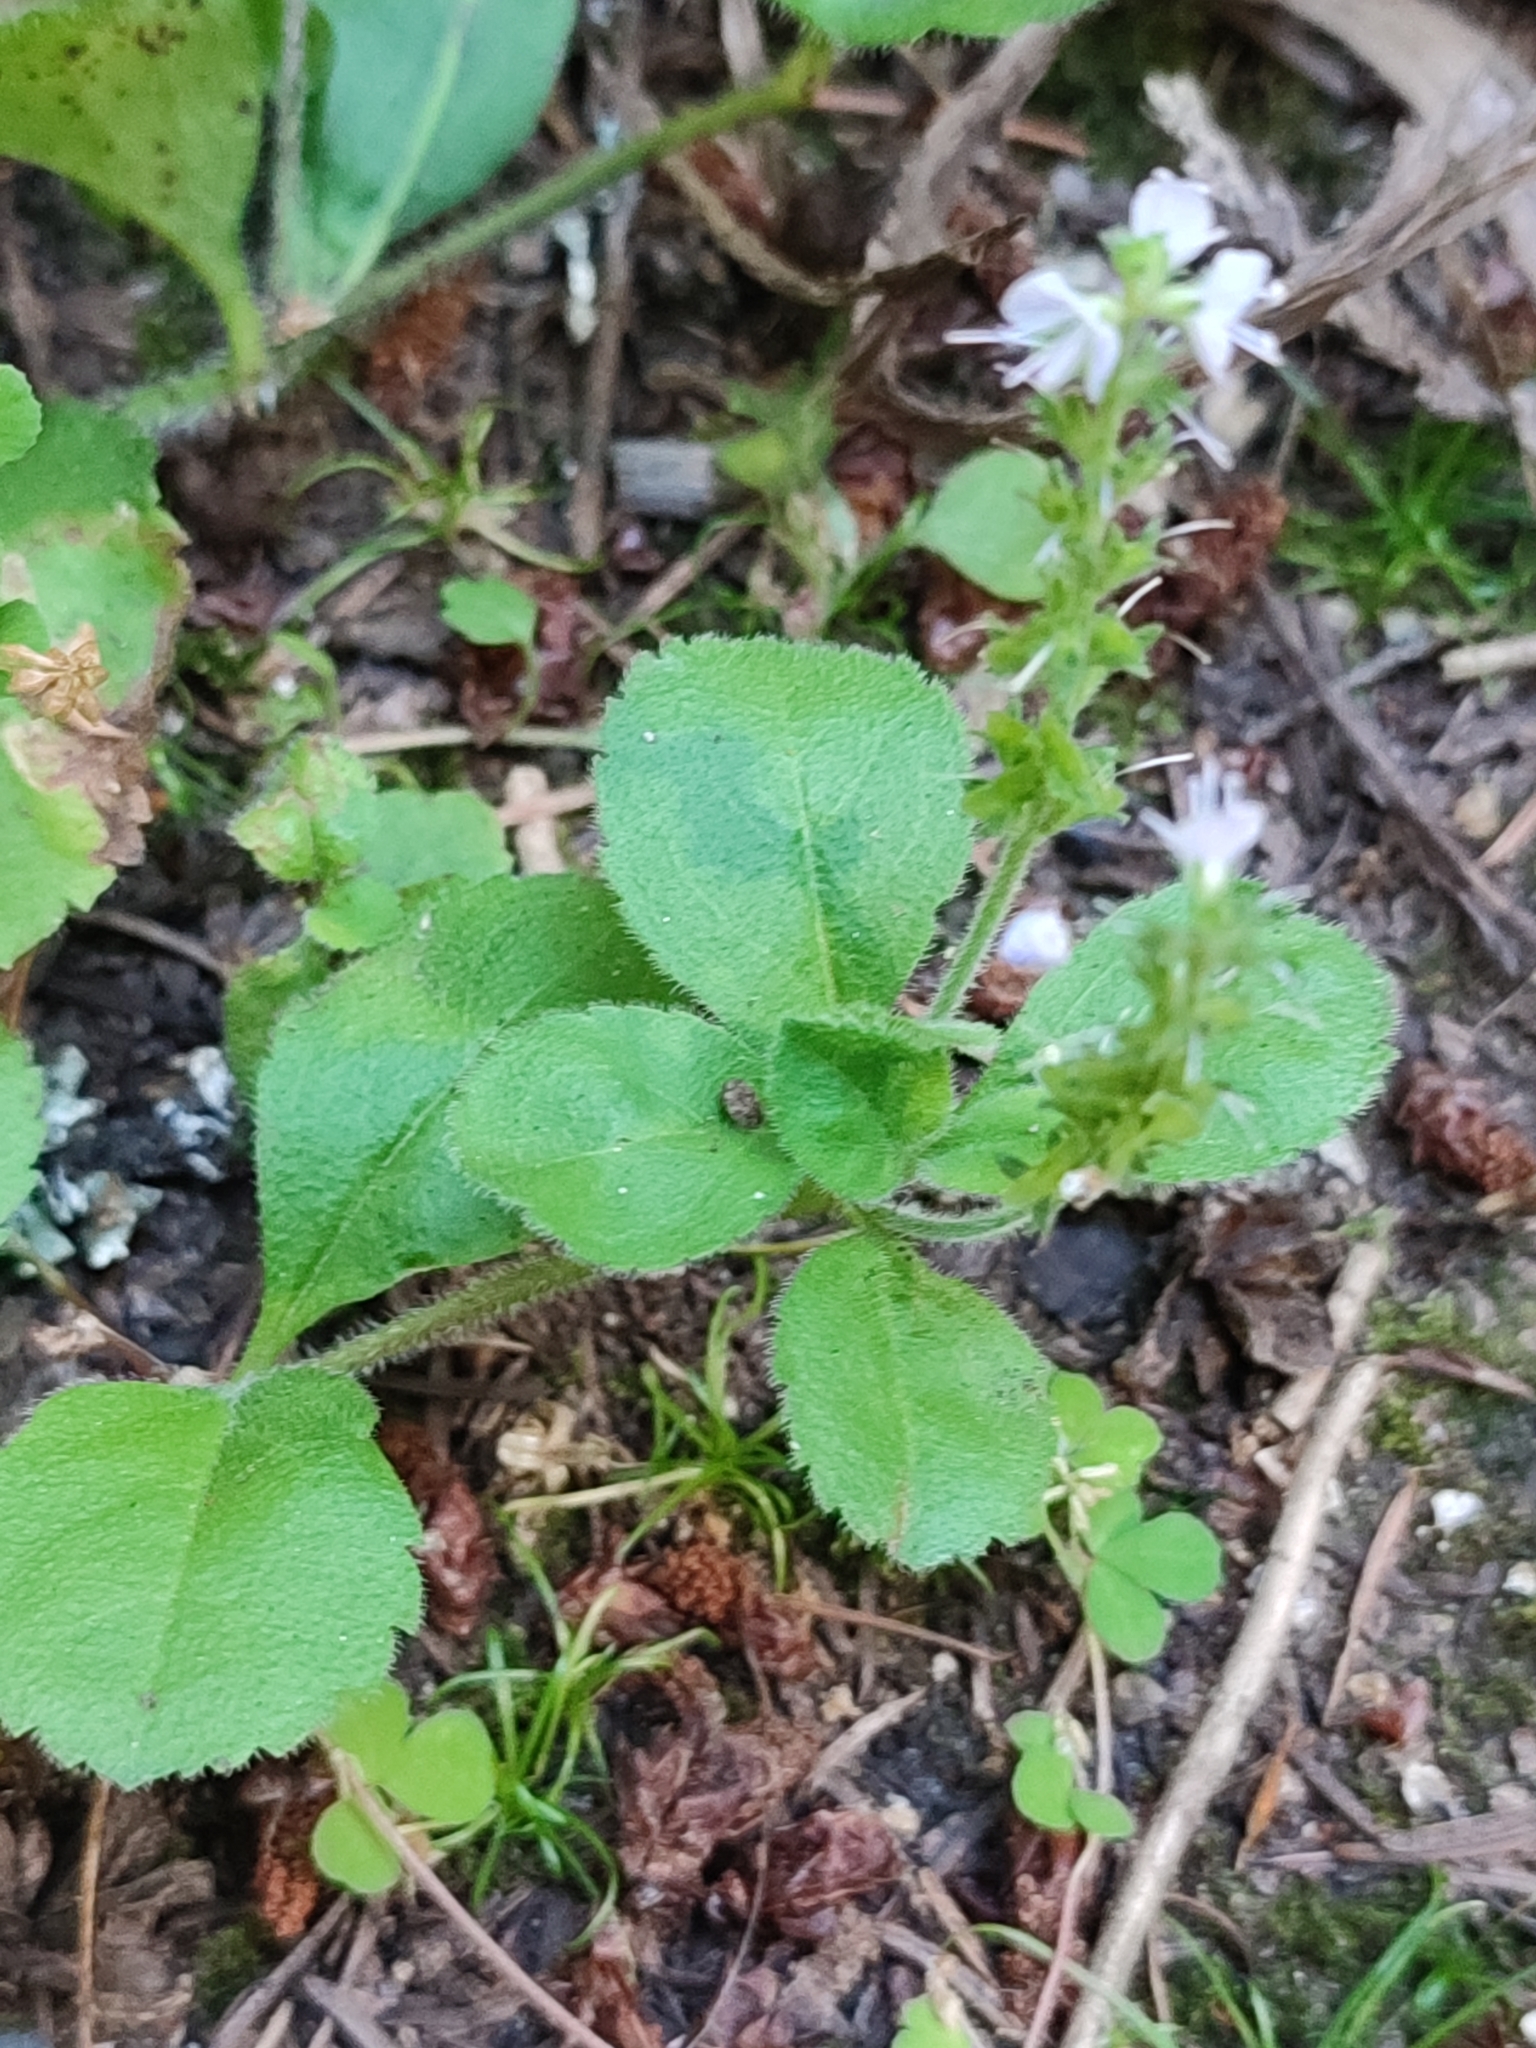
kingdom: Plantae
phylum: Tracheophyta
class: Magnoliopsida
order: Lamiales
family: Plantaginaceae
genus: Veronica
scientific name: Veronica officinalis
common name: Common speedwell
